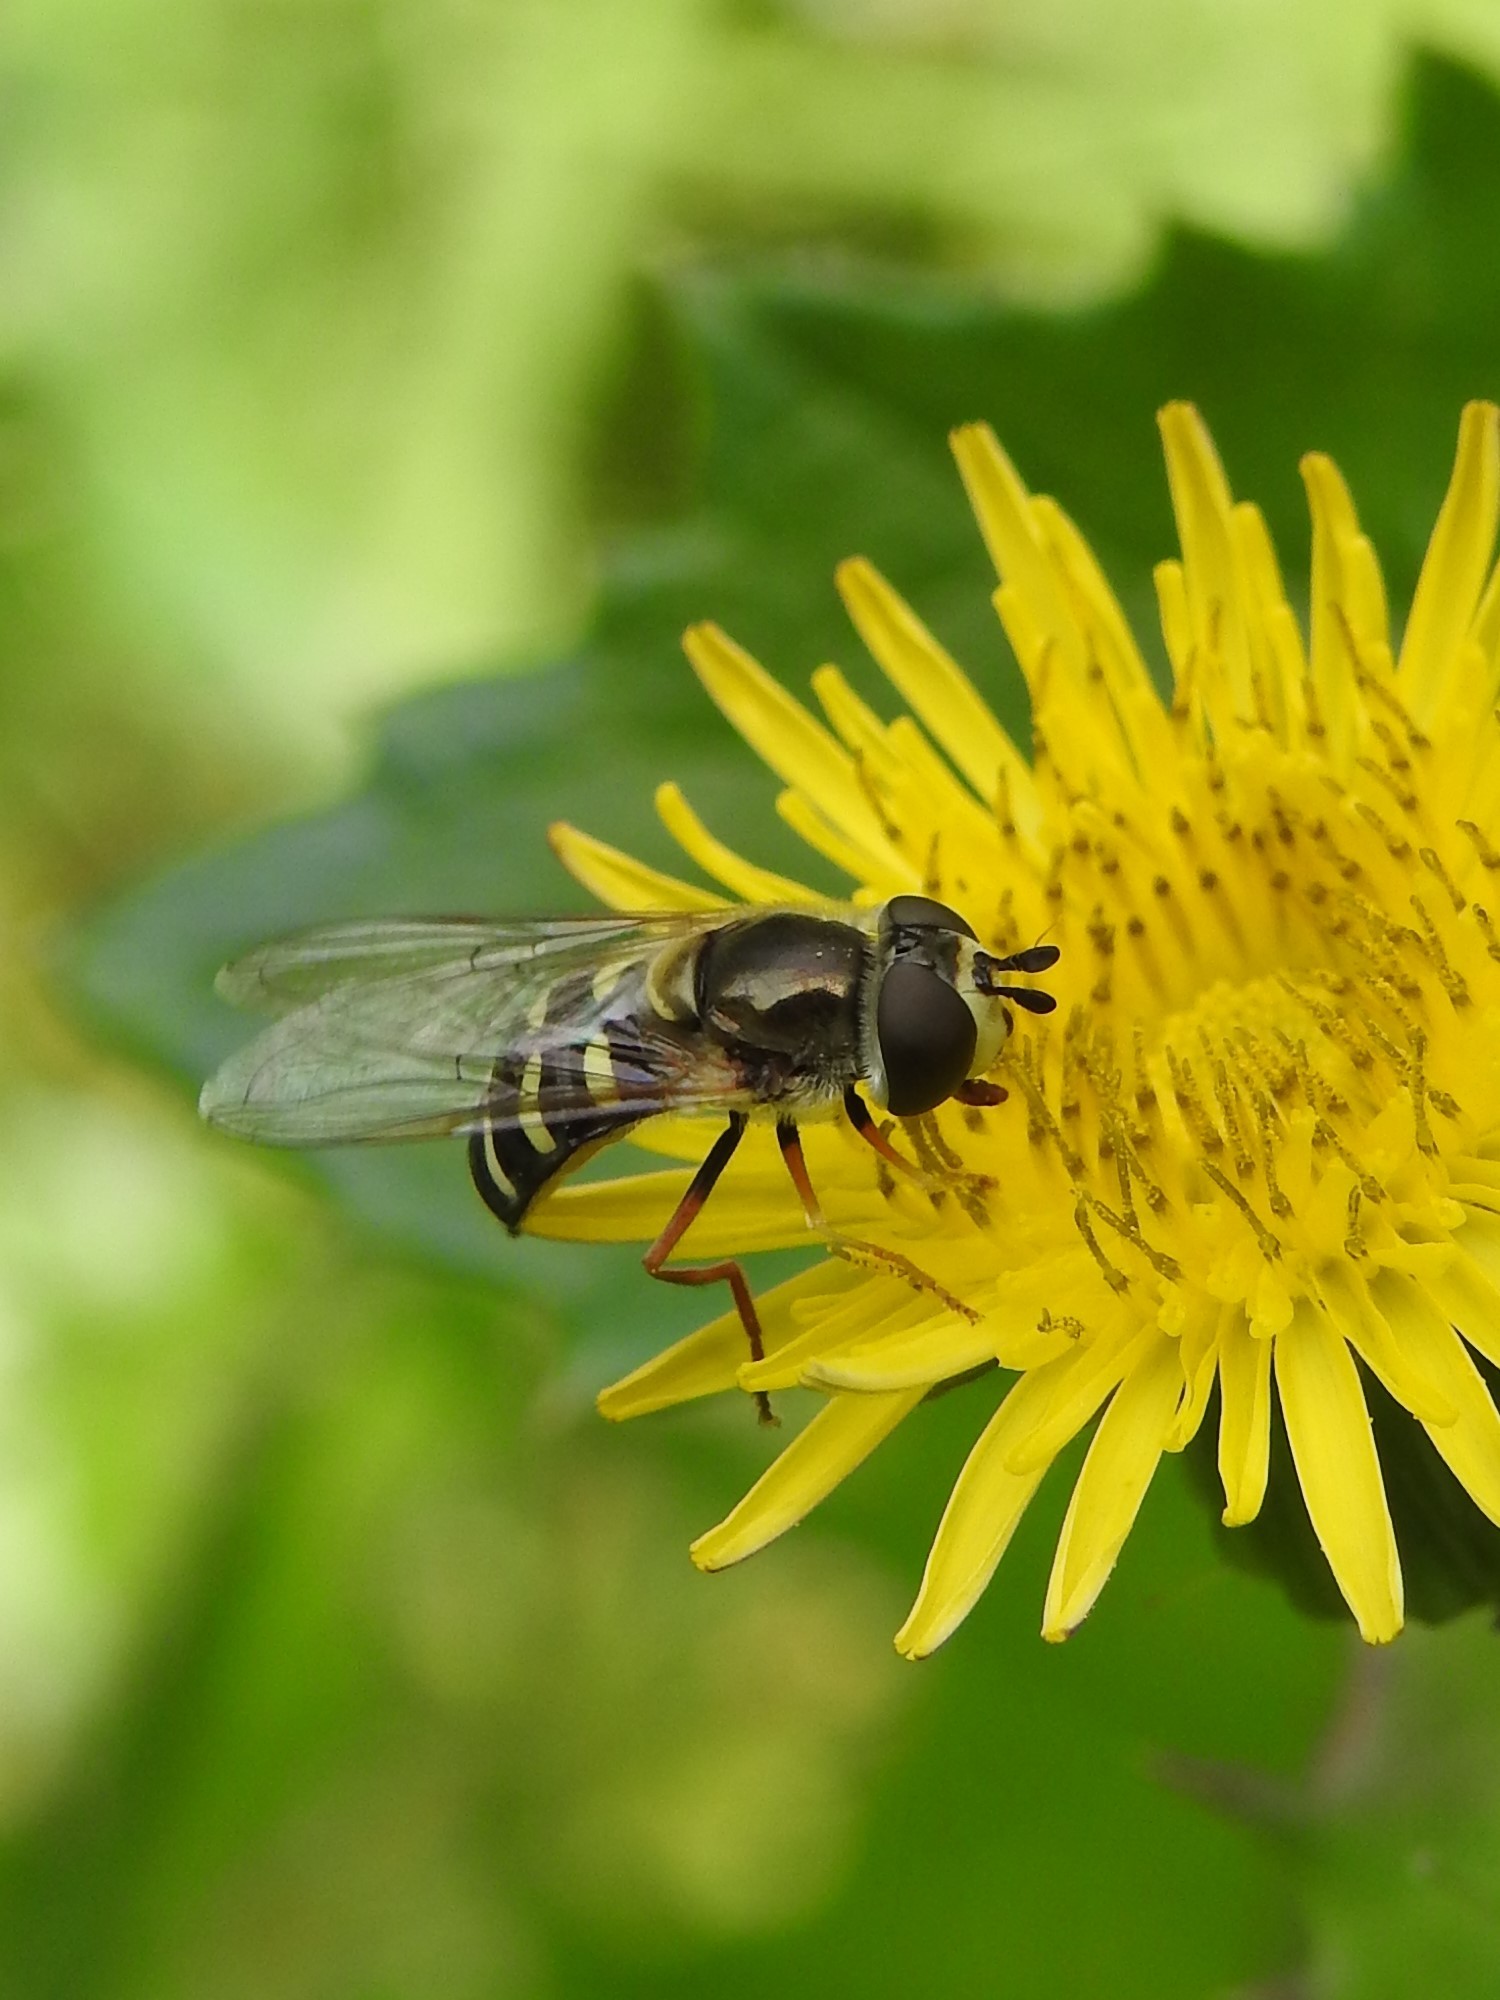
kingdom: Animalia
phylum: Arthropoda
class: Insecta
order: Diptera
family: Syrphidae
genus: Eupeodes
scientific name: Eupeodes volucris
